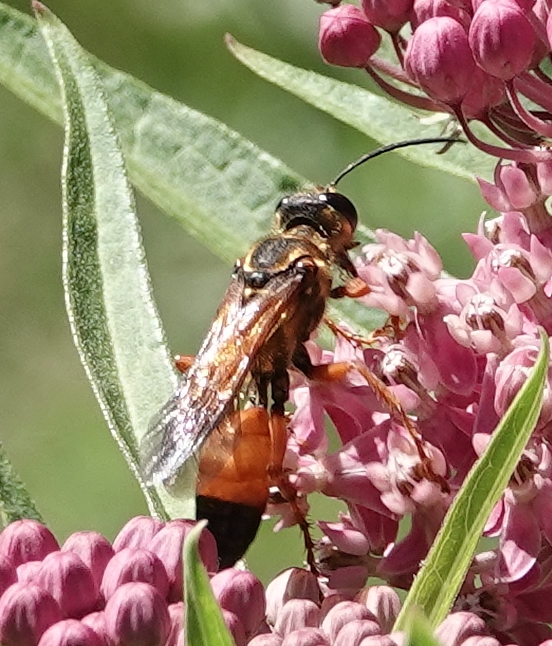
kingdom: Animalia
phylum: Arthropoda
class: Insecta
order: Hymenoptera
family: Sphecidae
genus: Sphex
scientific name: Sphex ichneumoneus
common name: Great golden digger wasp
